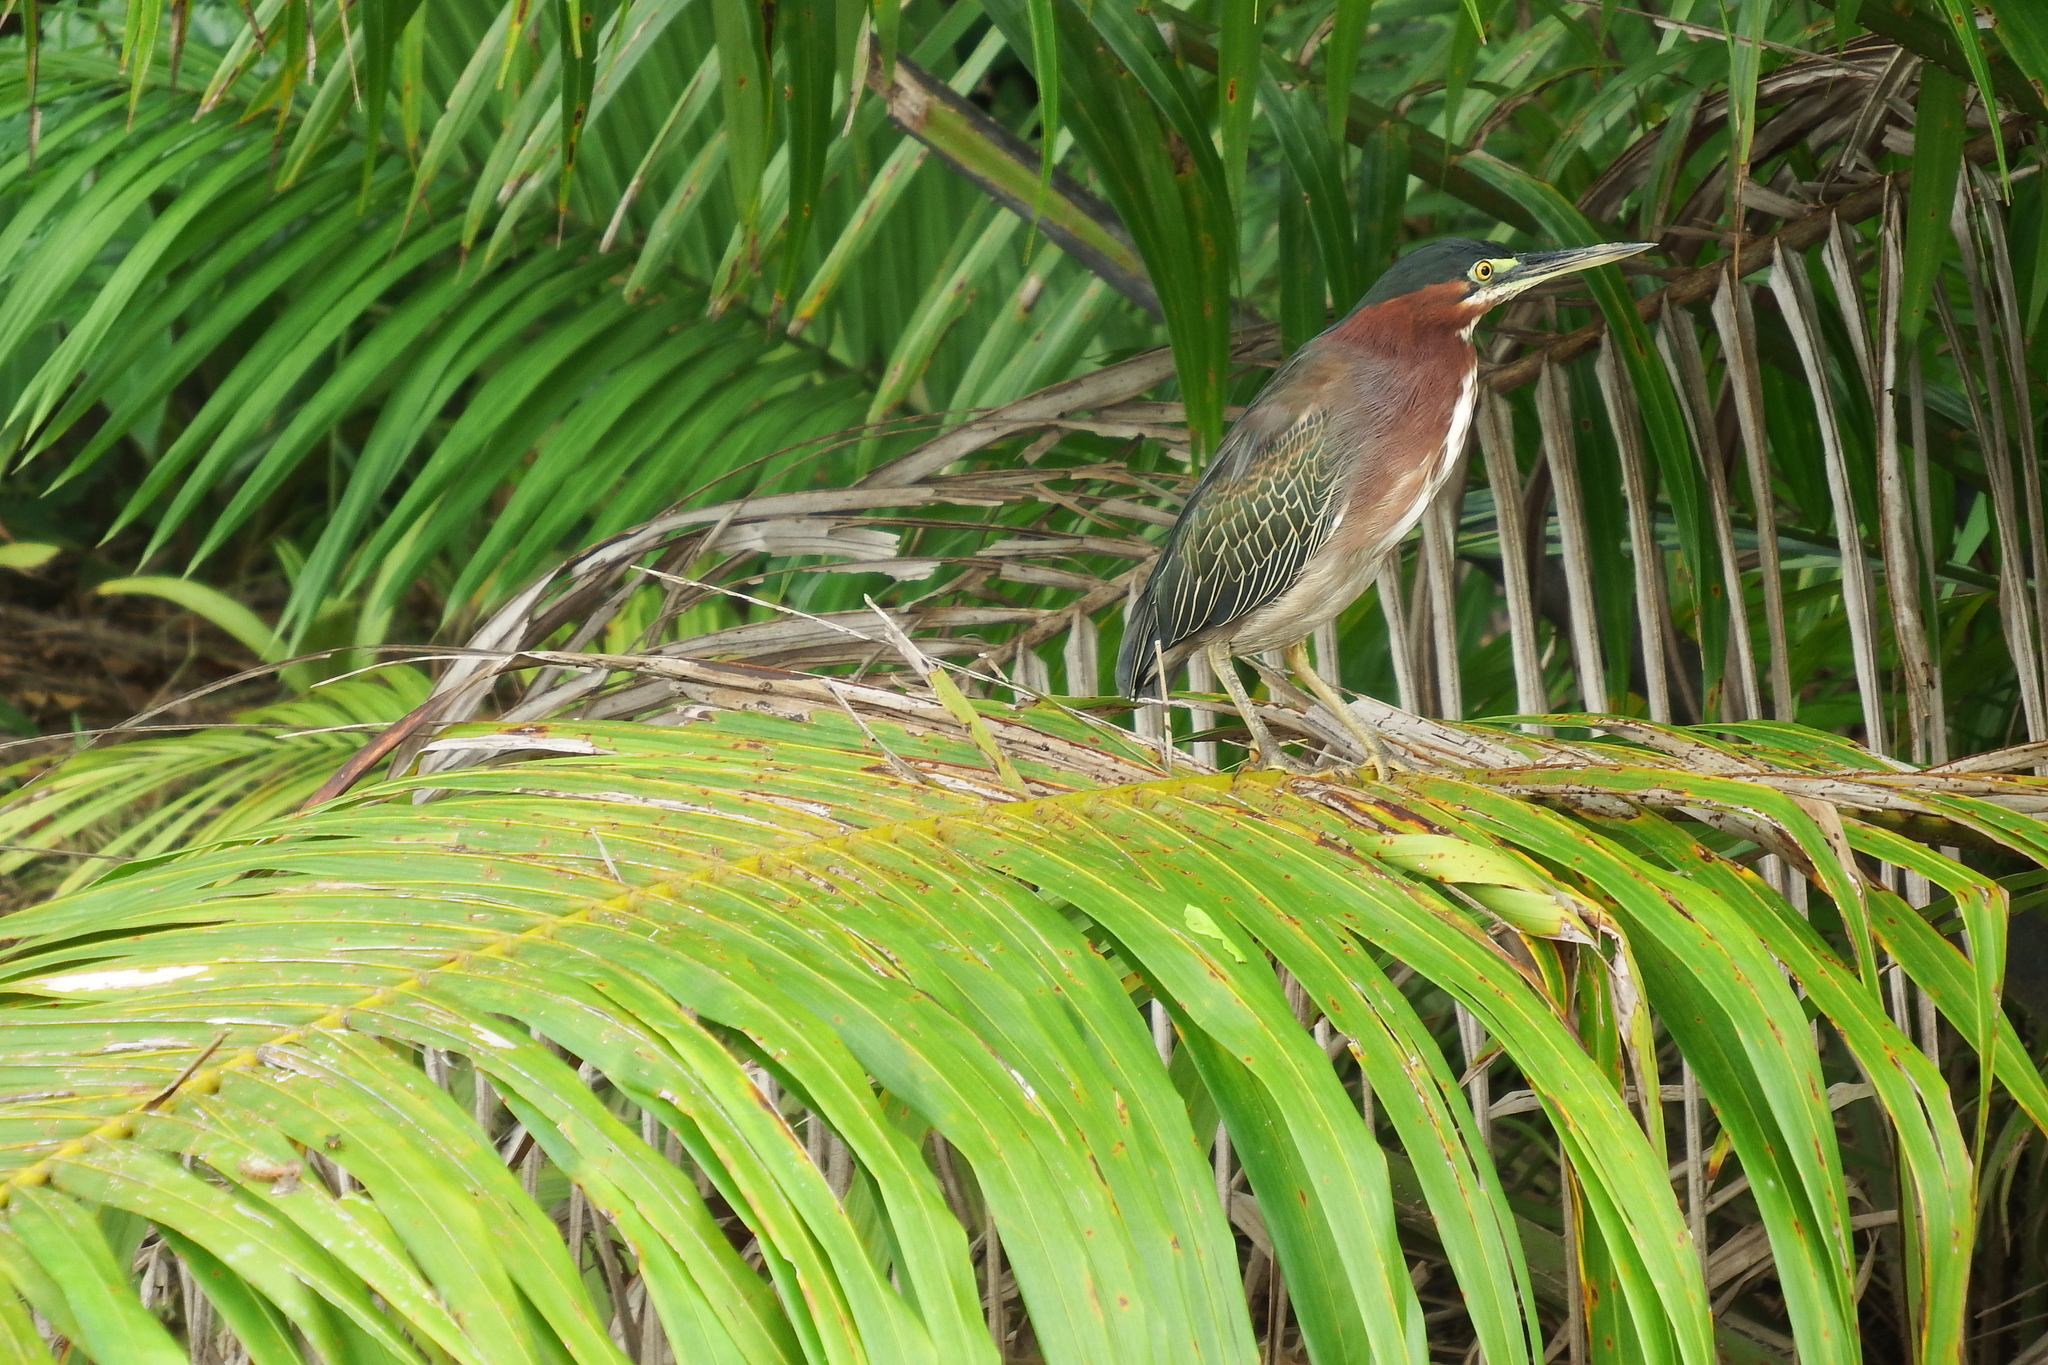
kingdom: Animalia
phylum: Chordata
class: Aves
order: Pelecaniformes
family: Ardeidae
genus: Butorides
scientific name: Butorides virescens
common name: Green heron
